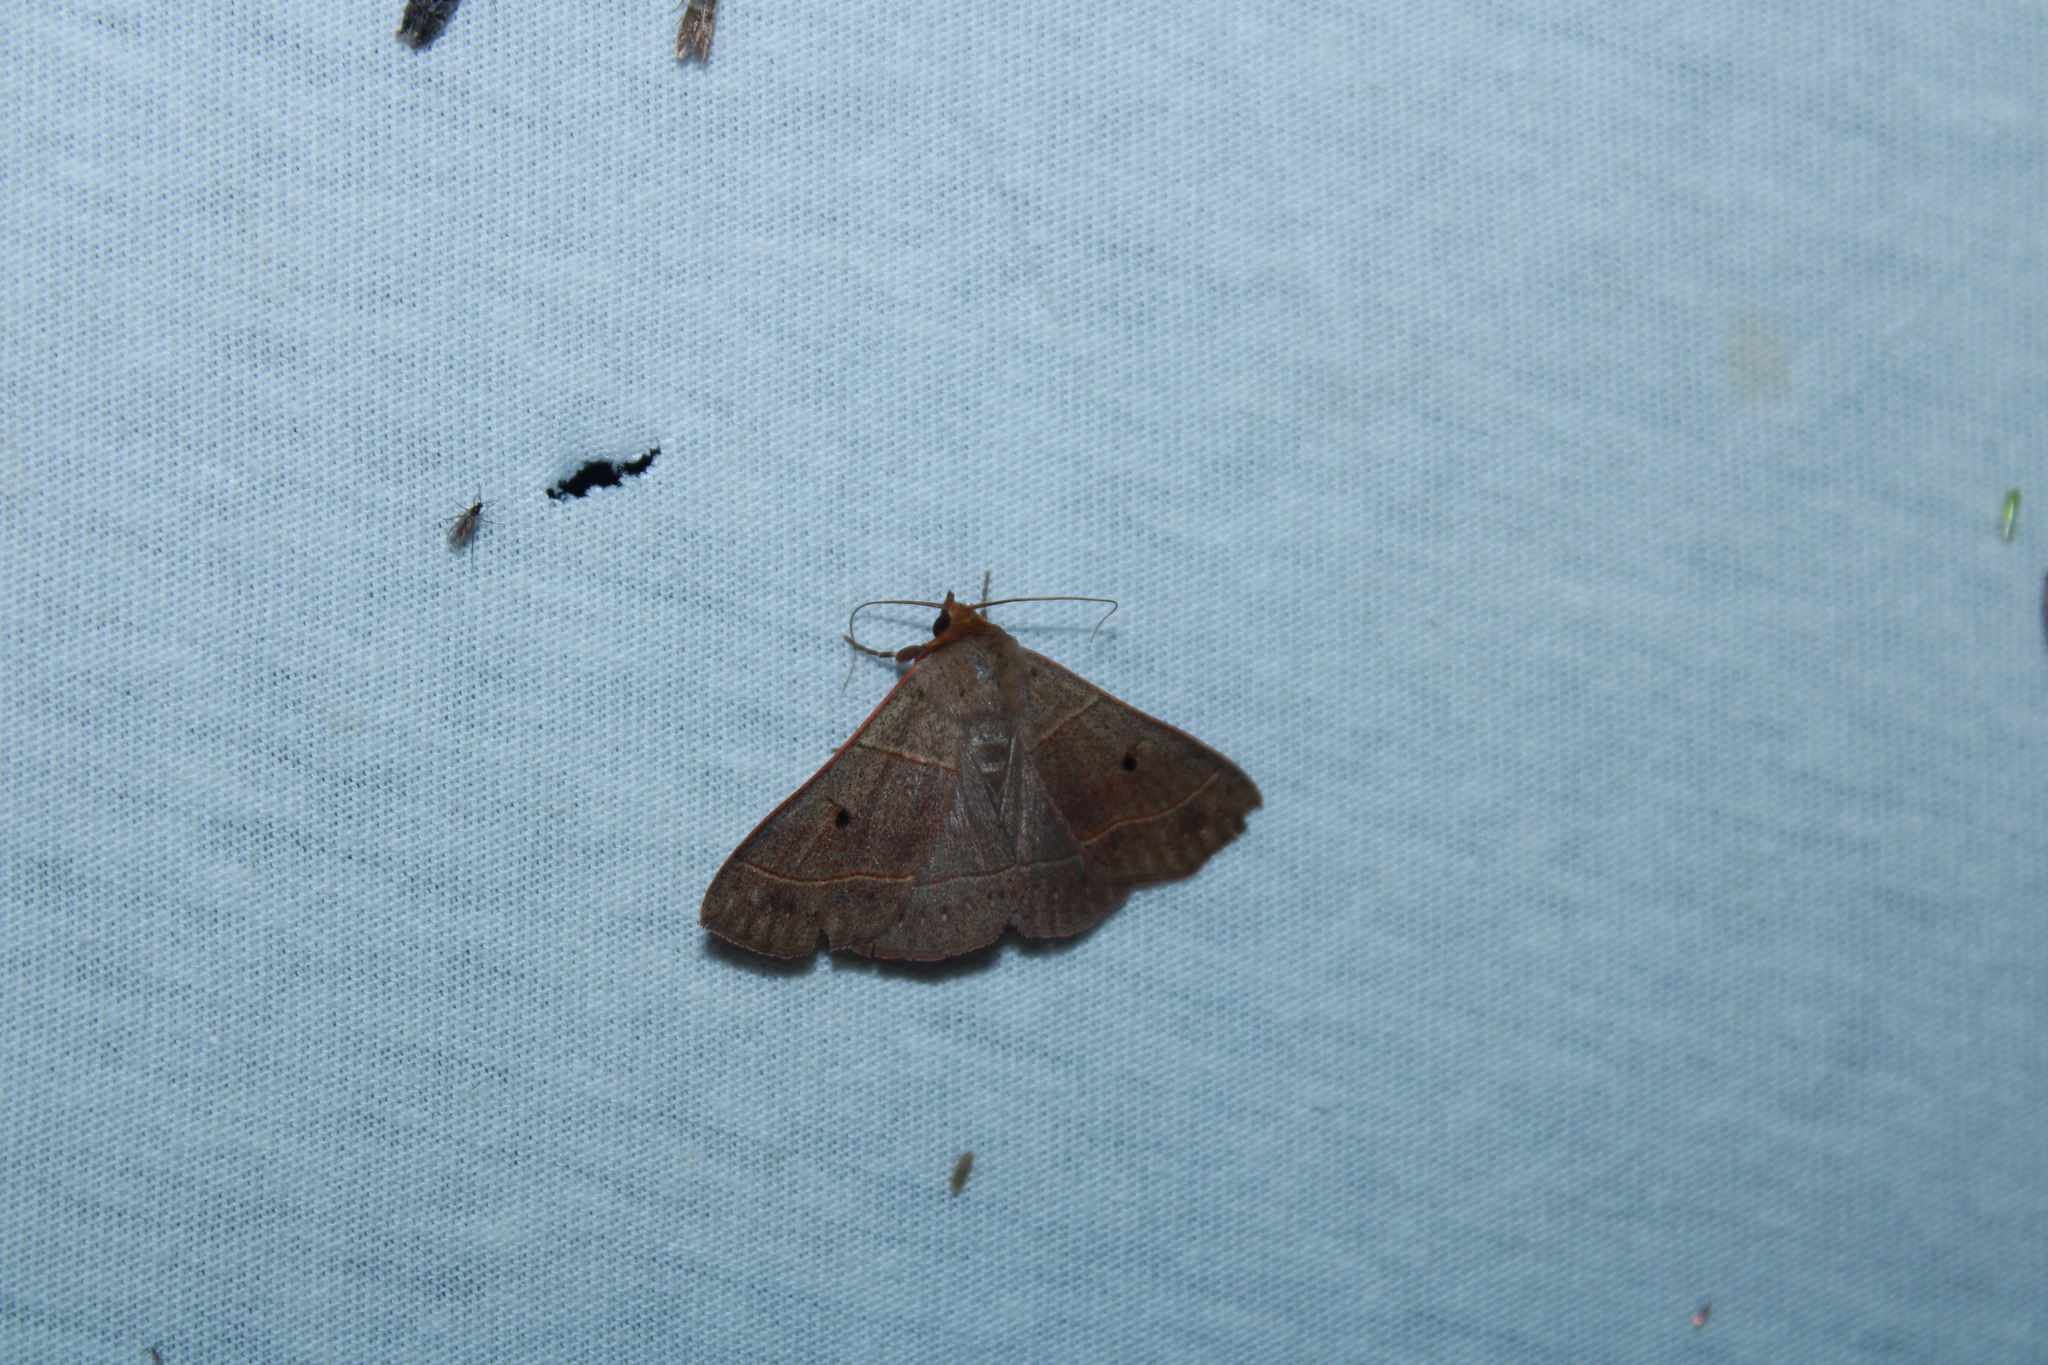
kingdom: Animalia
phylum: Arthropoda
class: Insecta
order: Lepidoptera
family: Erebidae
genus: Panopoda
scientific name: Panopoda rufimargo
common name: Red-lined panopoda moth
